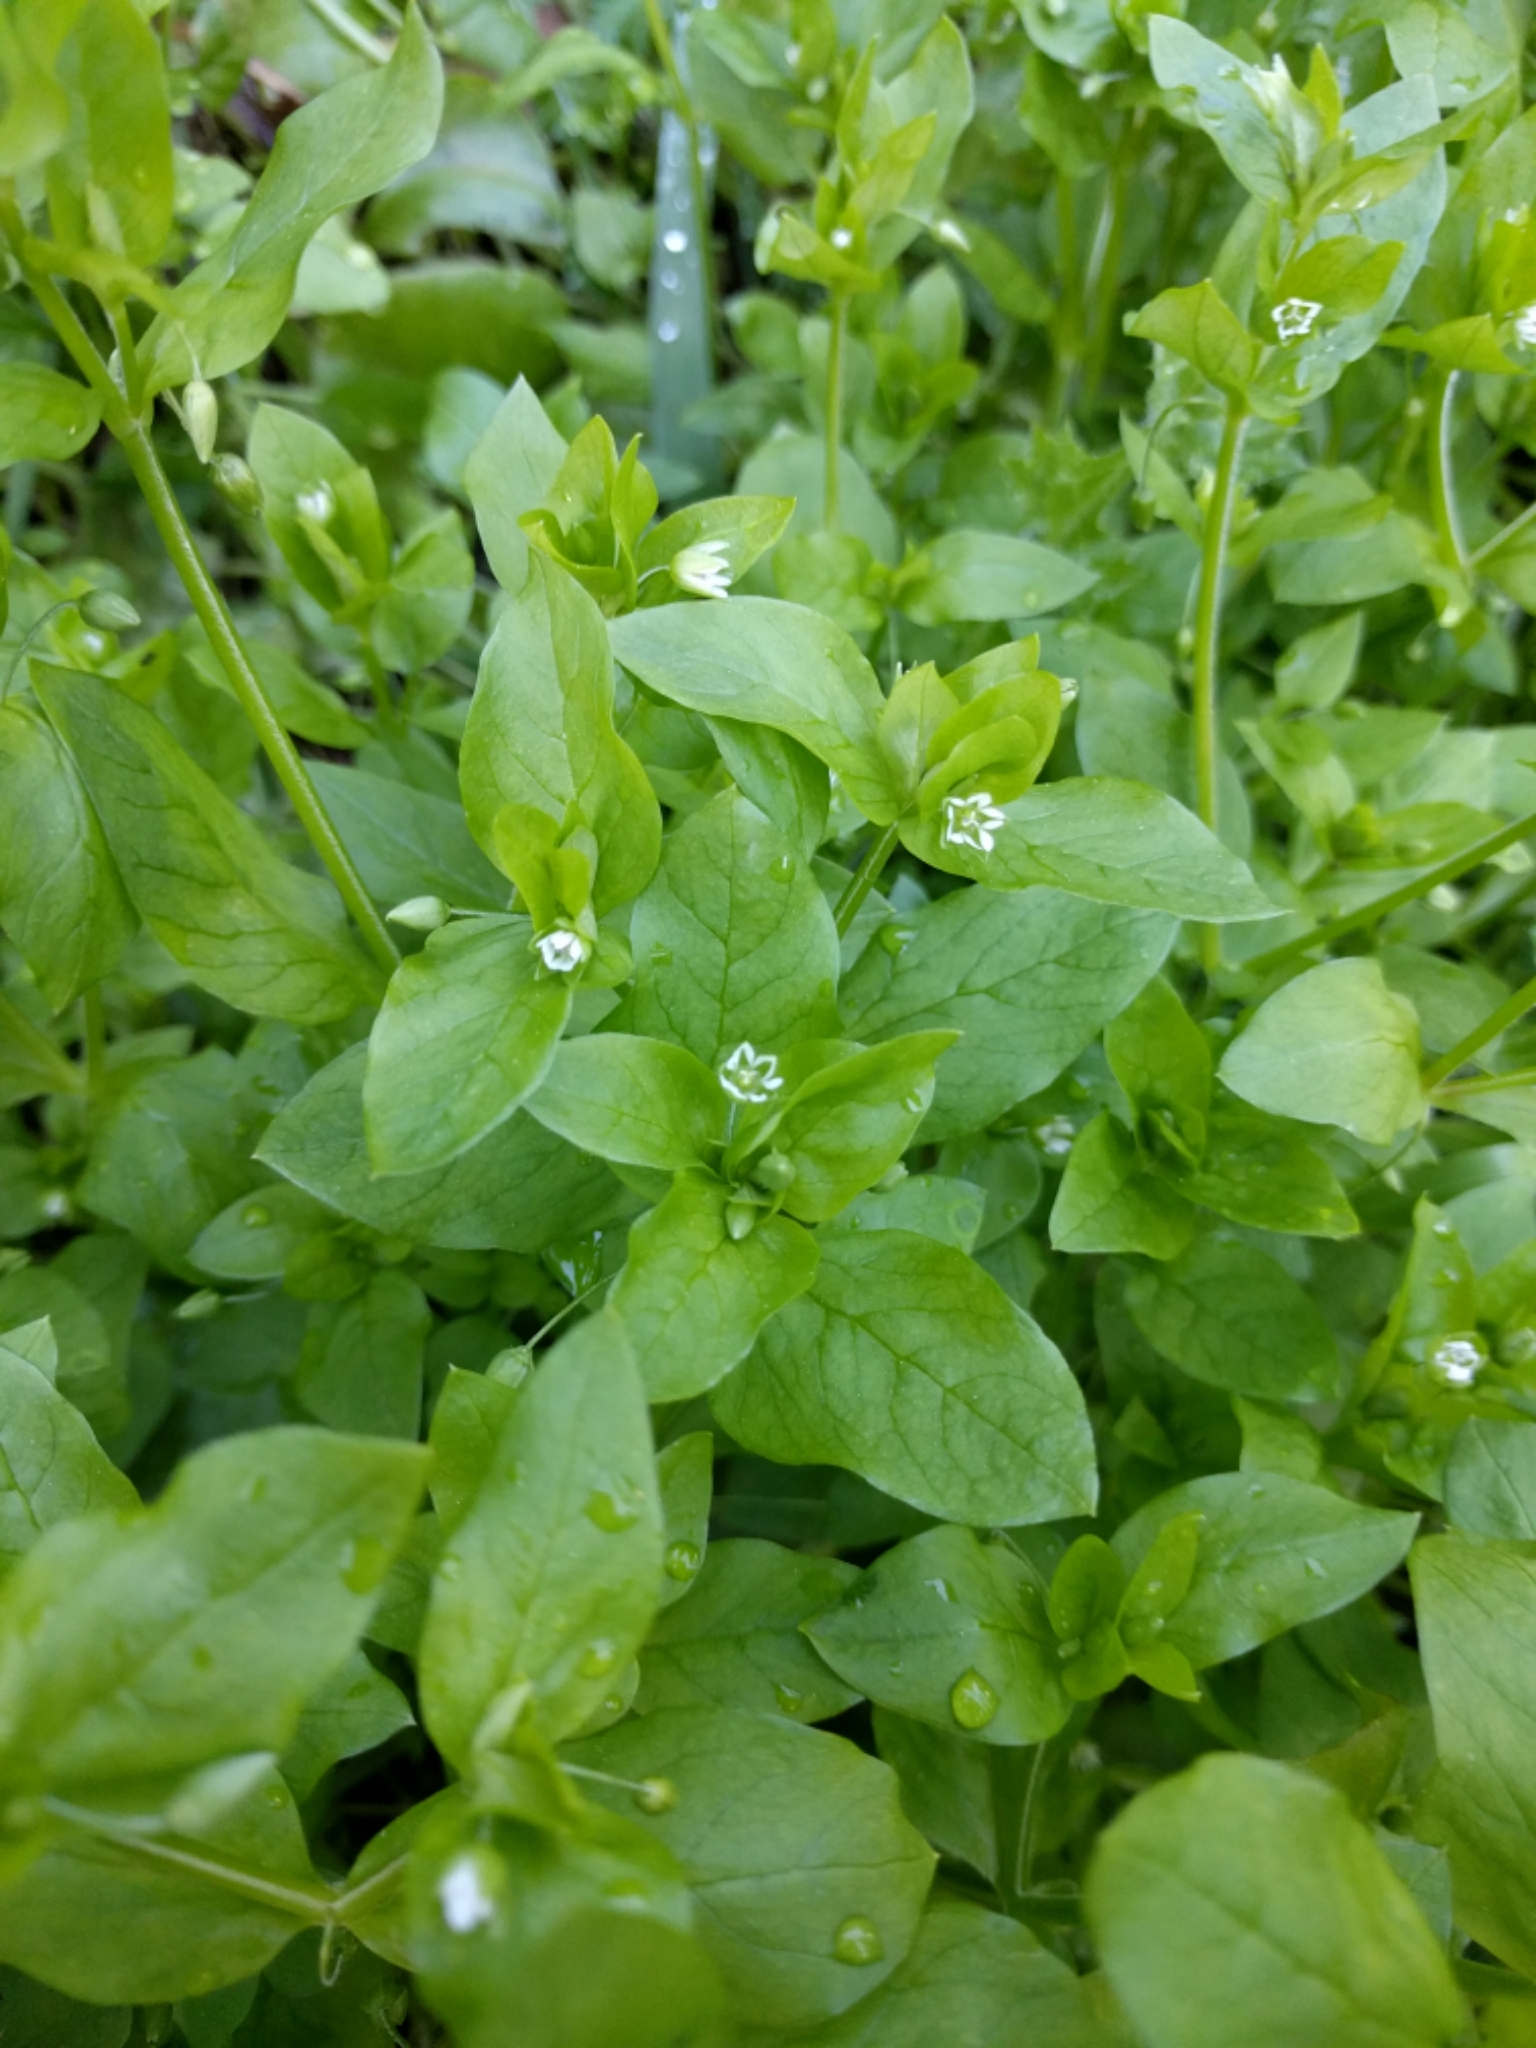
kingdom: Plantae
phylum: Tracheophyta
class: Magnoliopsida
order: Caryophyllales
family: Caryophyllaceae
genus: Stellaria
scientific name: Stellaria media
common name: Common chickweed
